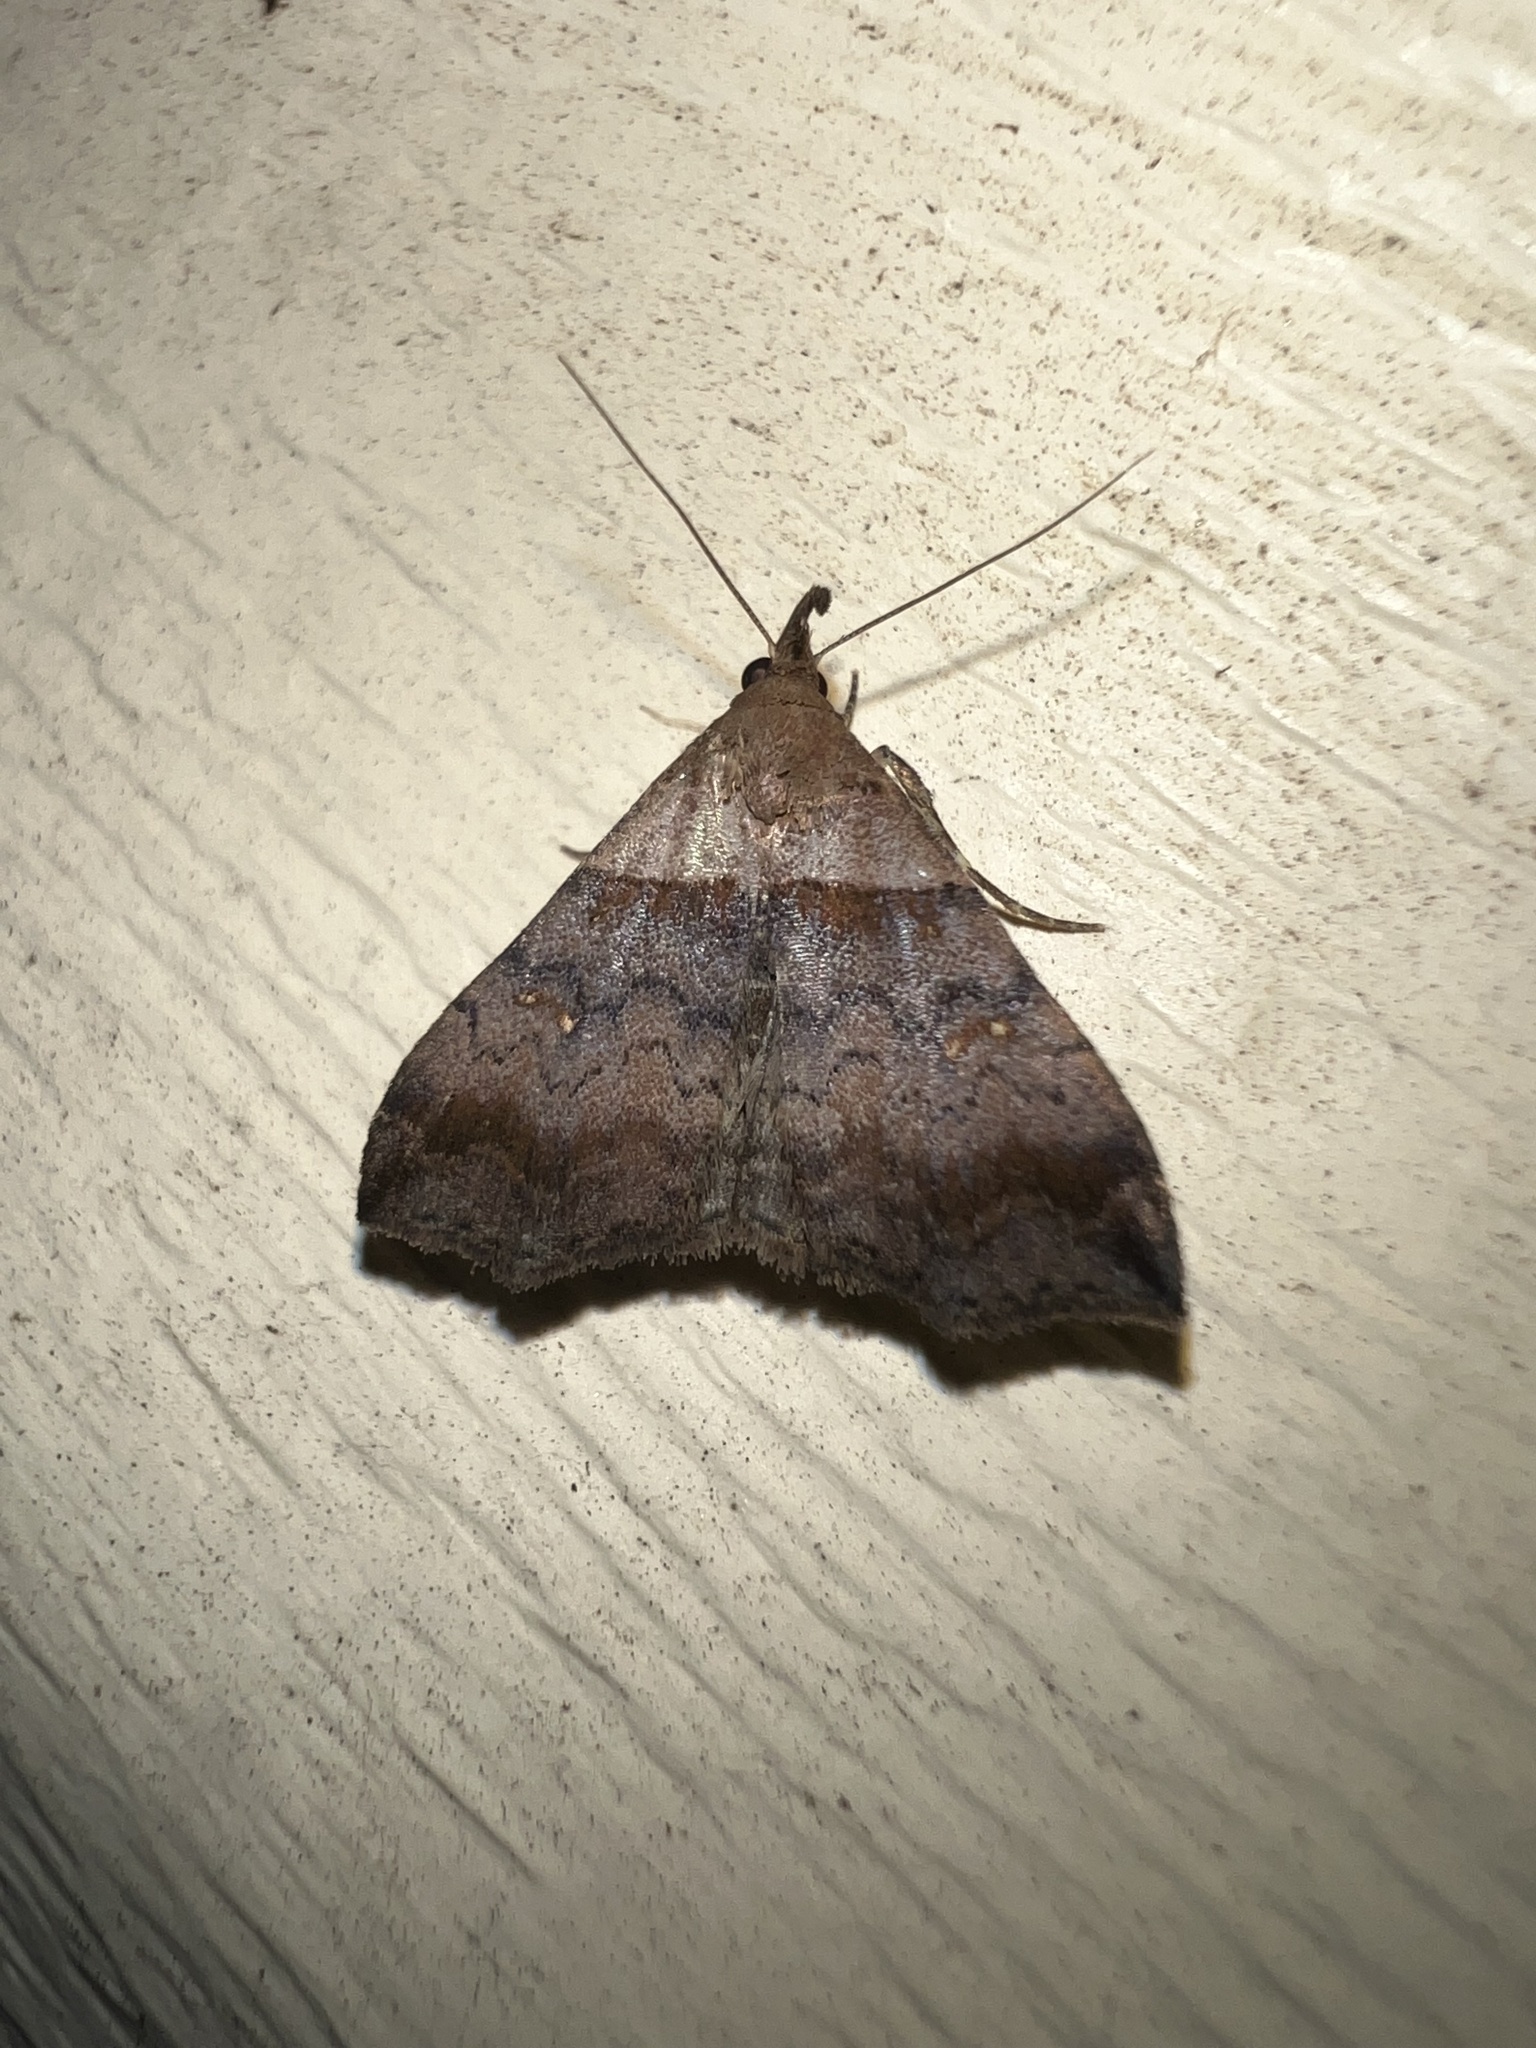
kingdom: Animalia
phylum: Arthropoda
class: Insecta
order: Lepidoptera
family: Erebidae
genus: Lascoria
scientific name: Lascoria ambigualis
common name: Ambiguous moth
